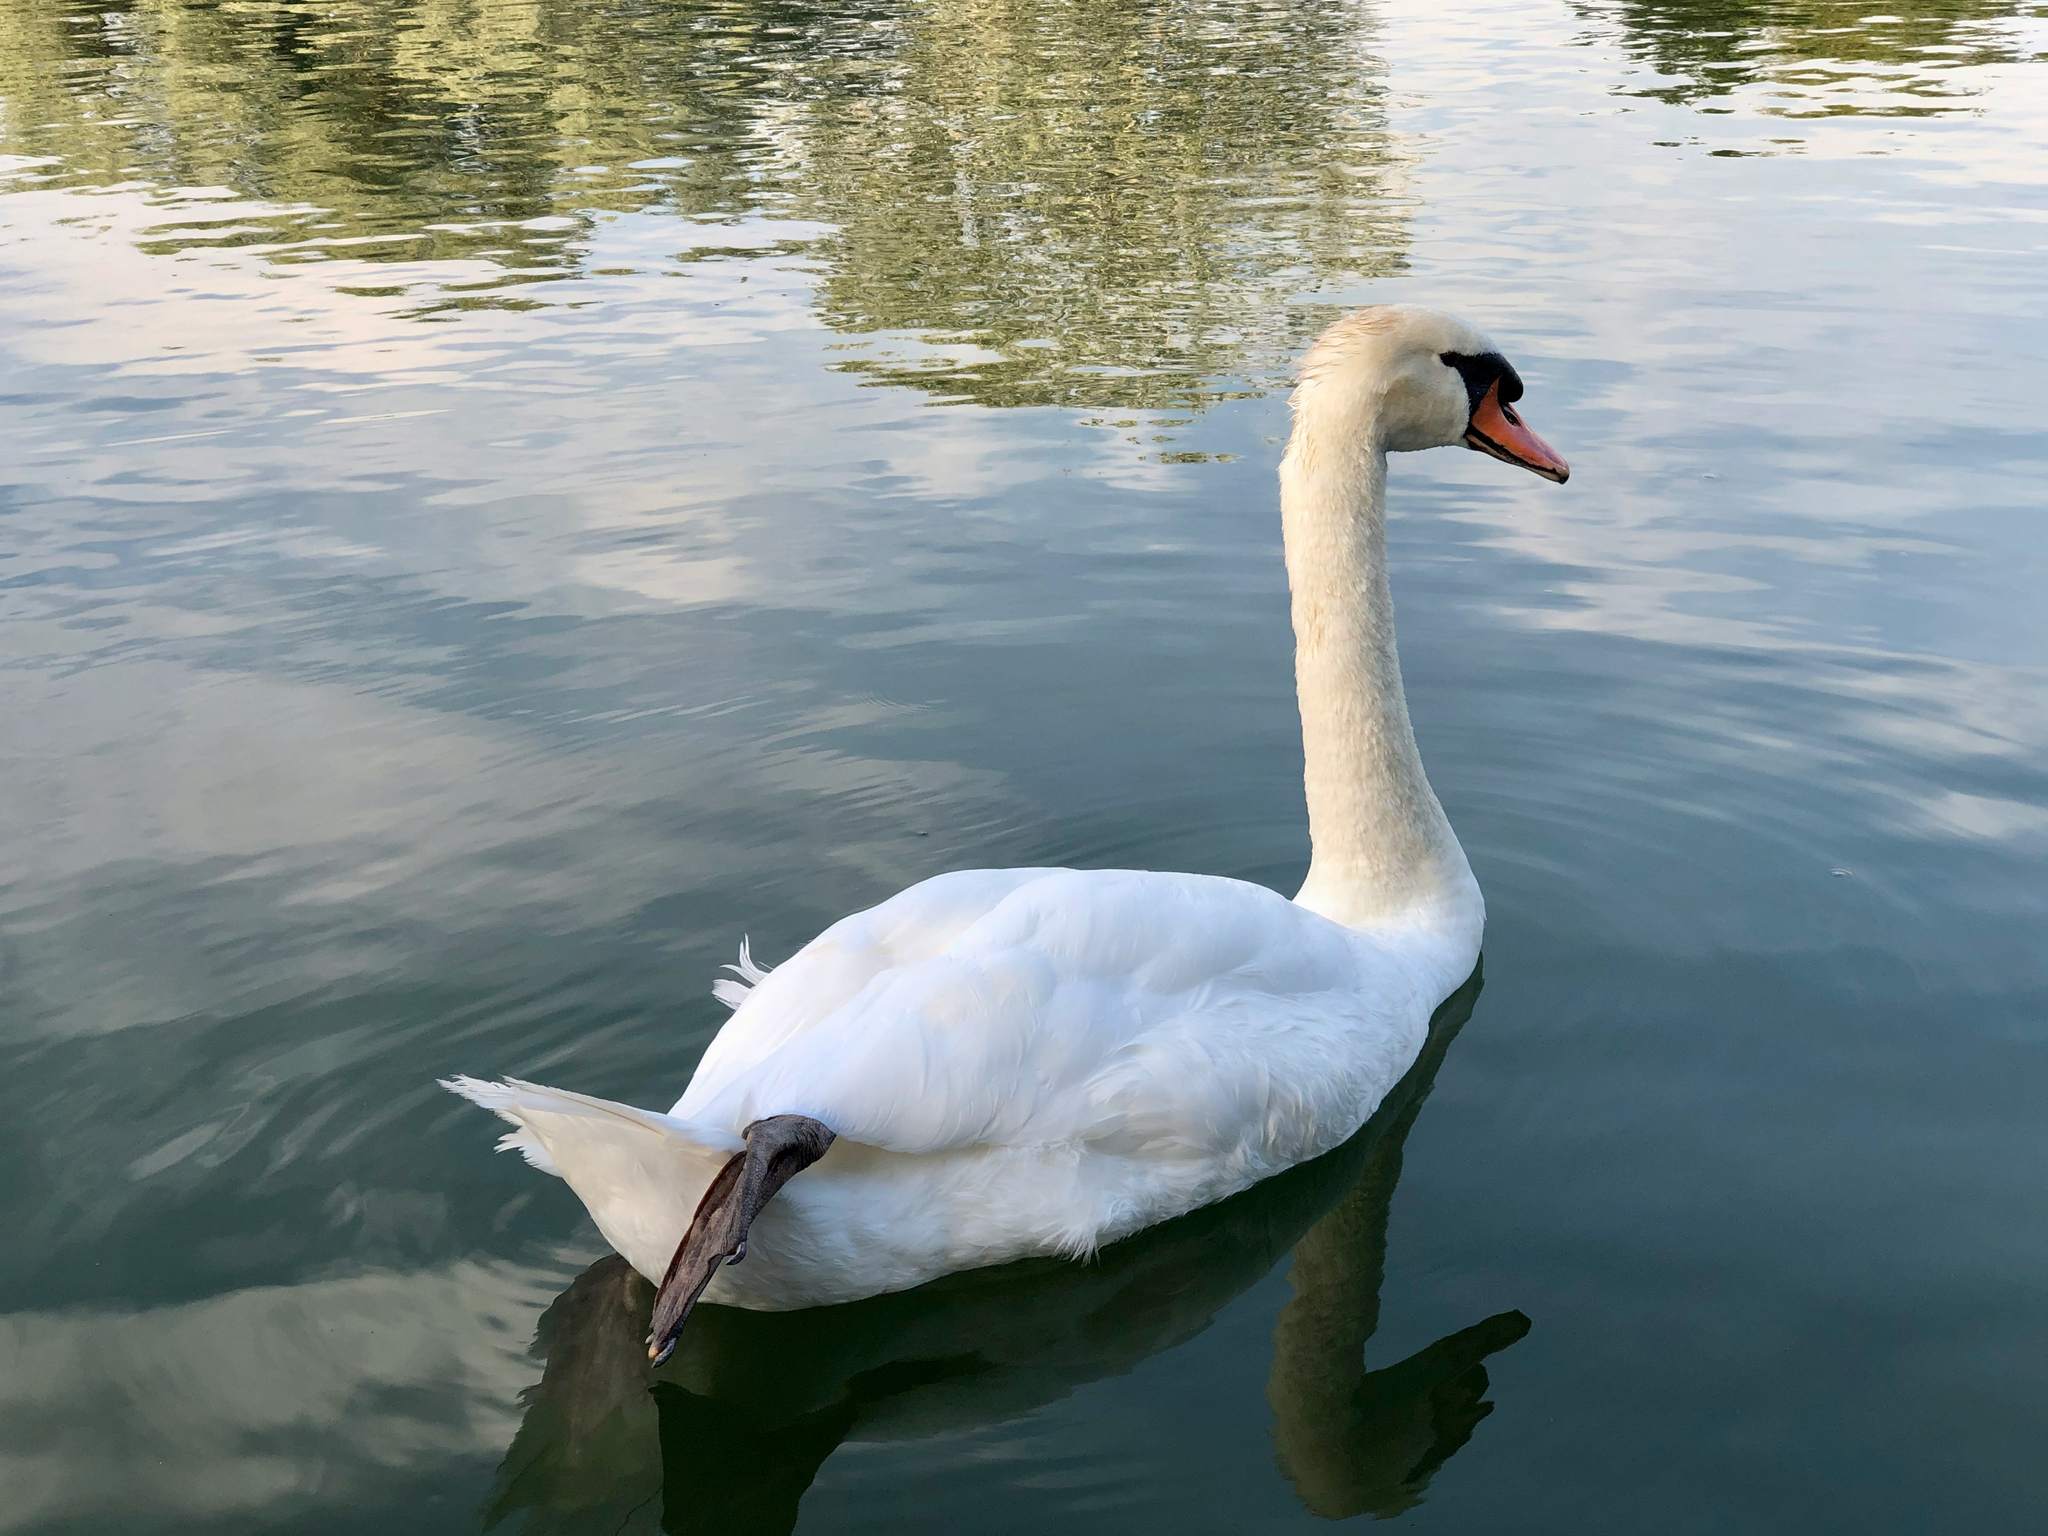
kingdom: Animalia
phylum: Chordata
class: Aves
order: Anseriformes
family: Anatidae
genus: Cygnus
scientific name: Cygnus olor
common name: Mute swan
